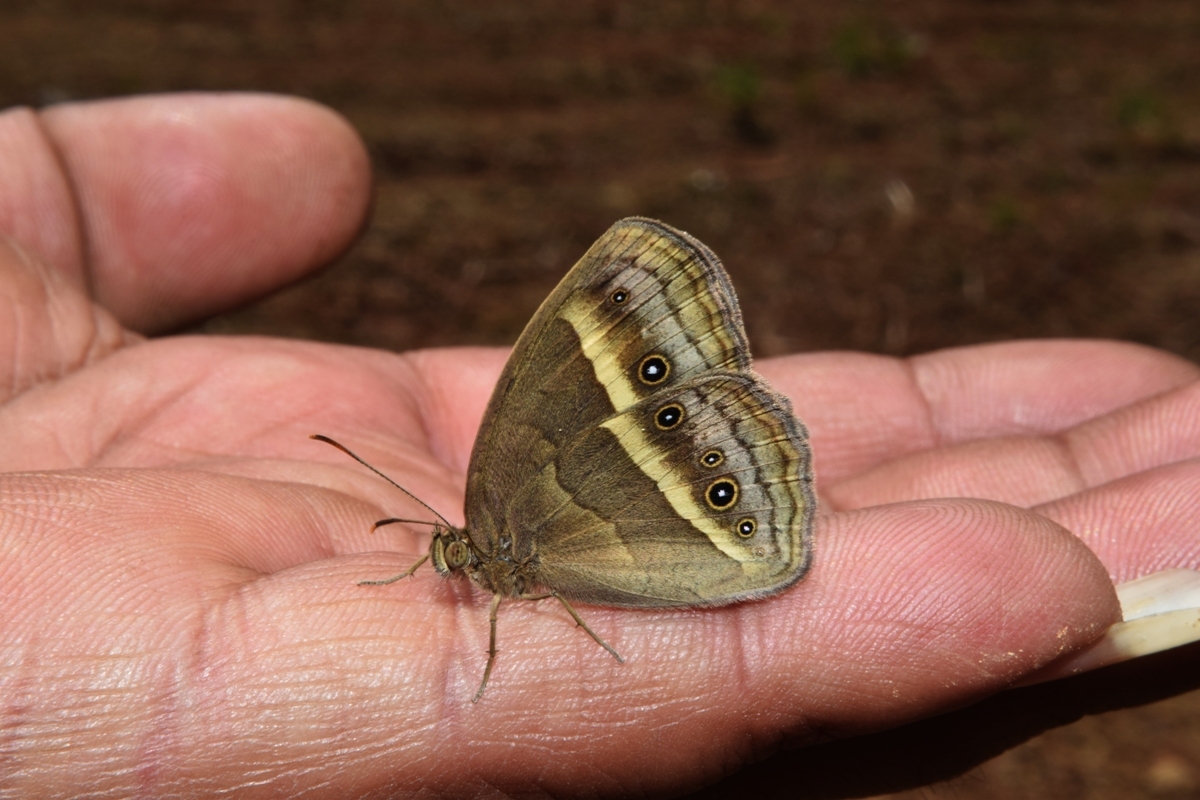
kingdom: Animalia
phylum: Arthropoda
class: Insecta
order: Lepidoptera
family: Nymphalidae
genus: Mycalesis
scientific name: Mycalesis evansii
